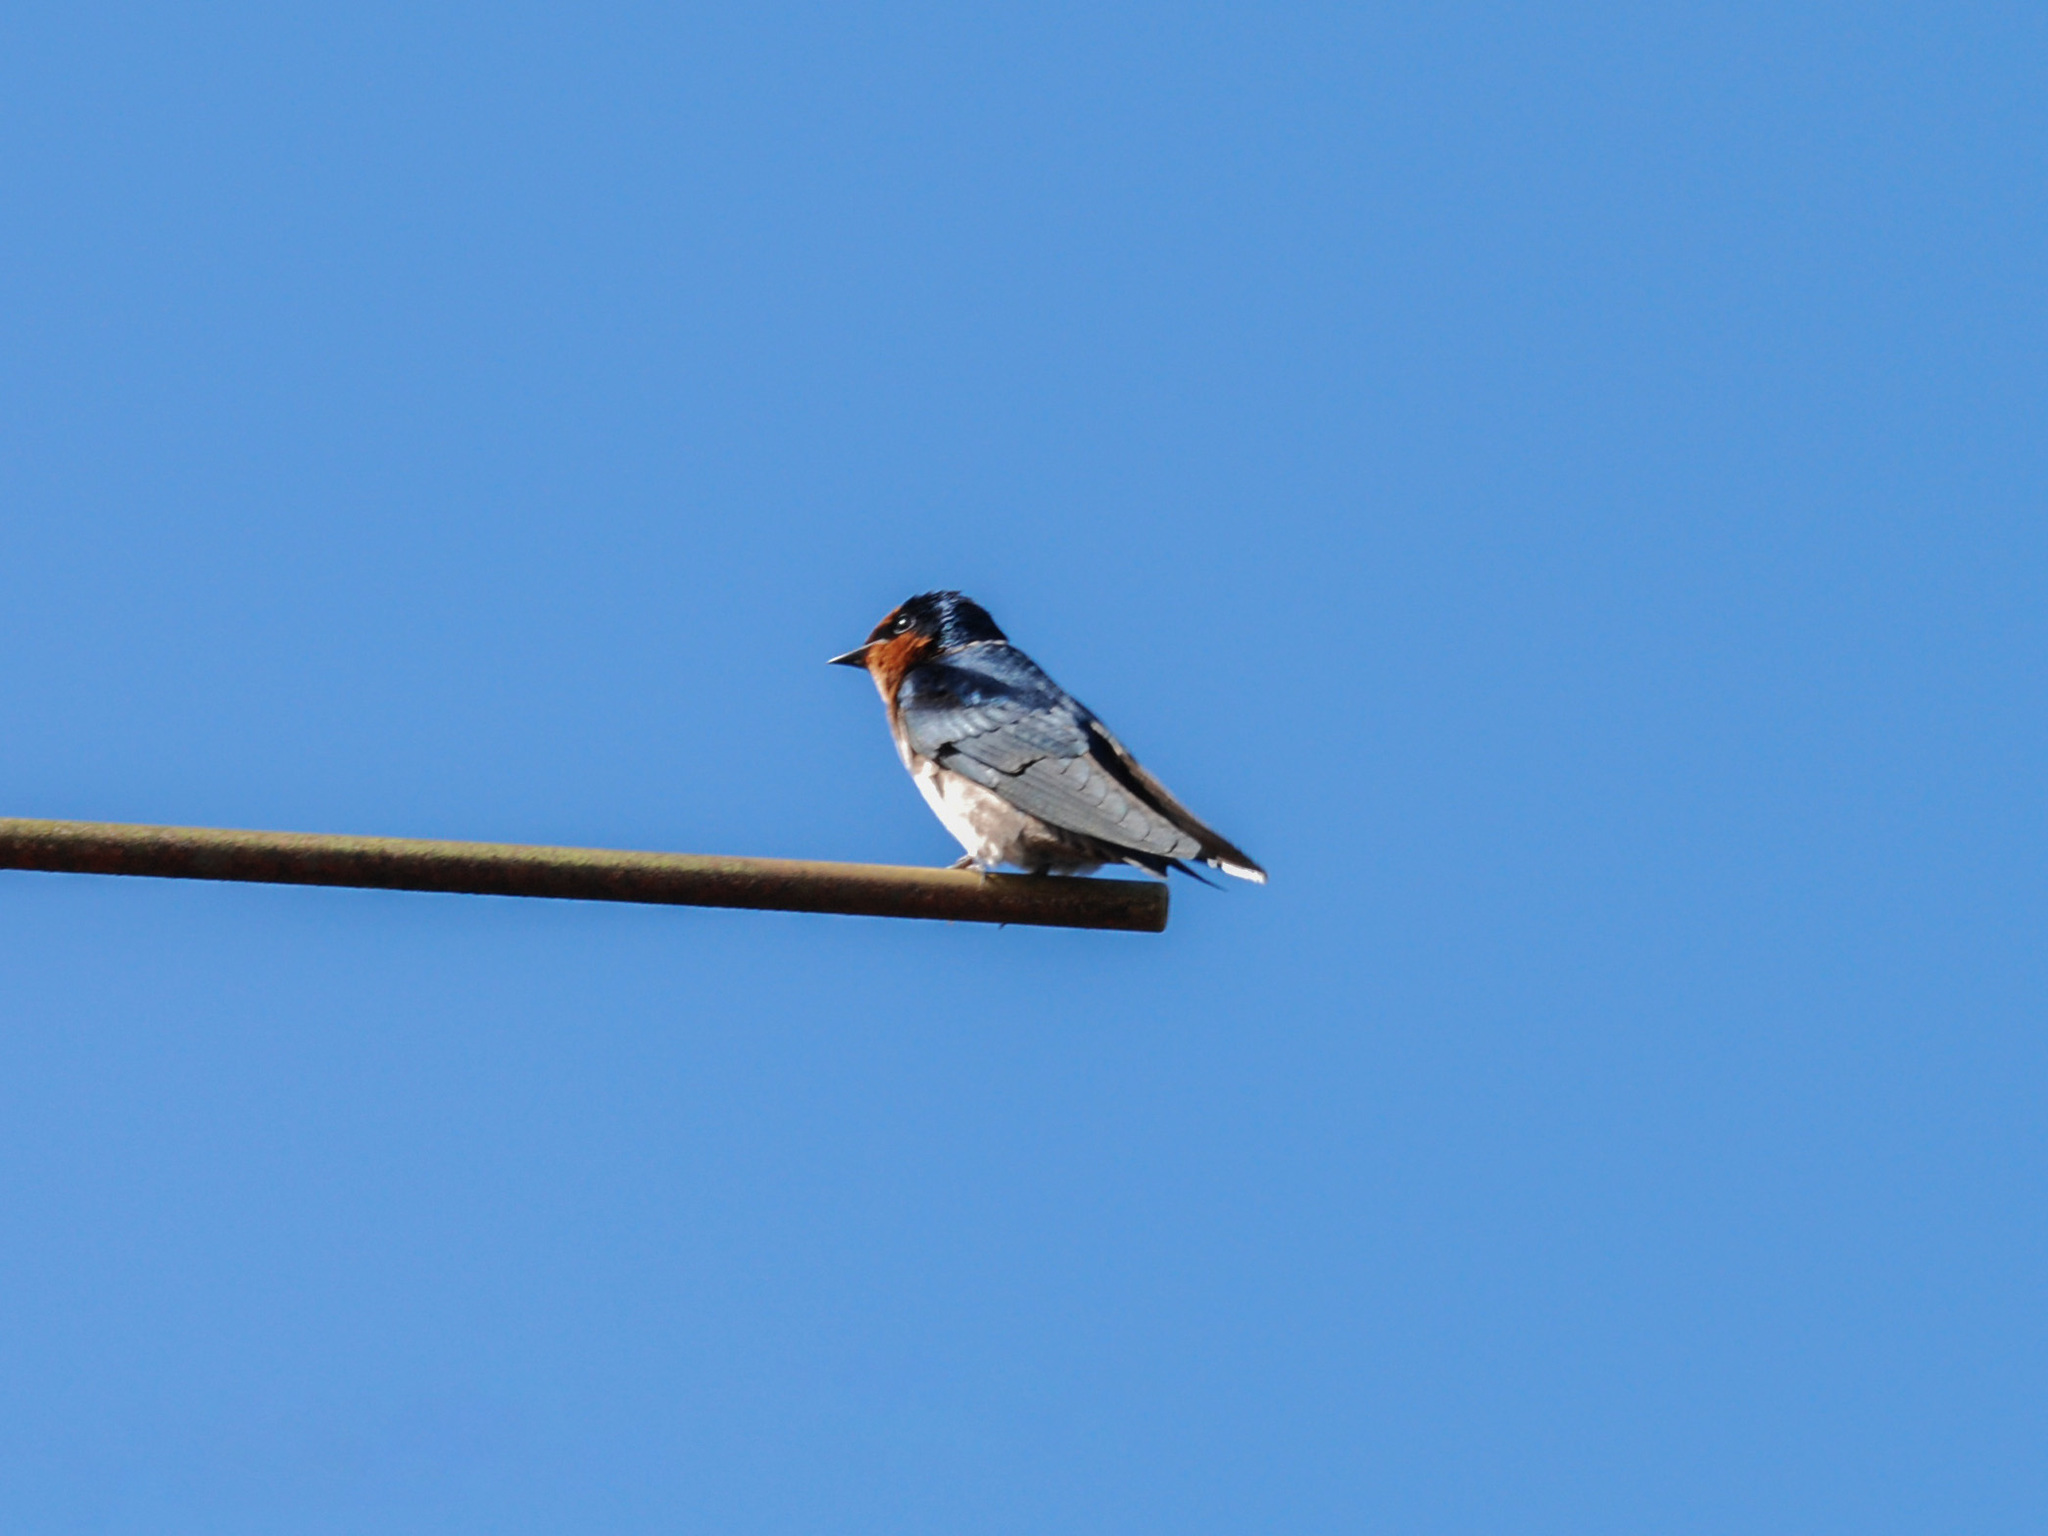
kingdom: Animalia
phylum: Chordata
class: Aves
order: Passeriformes
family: Hirundinidae
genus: Hirundo
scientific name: Hirundo tahitica
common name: Pacific swallow
